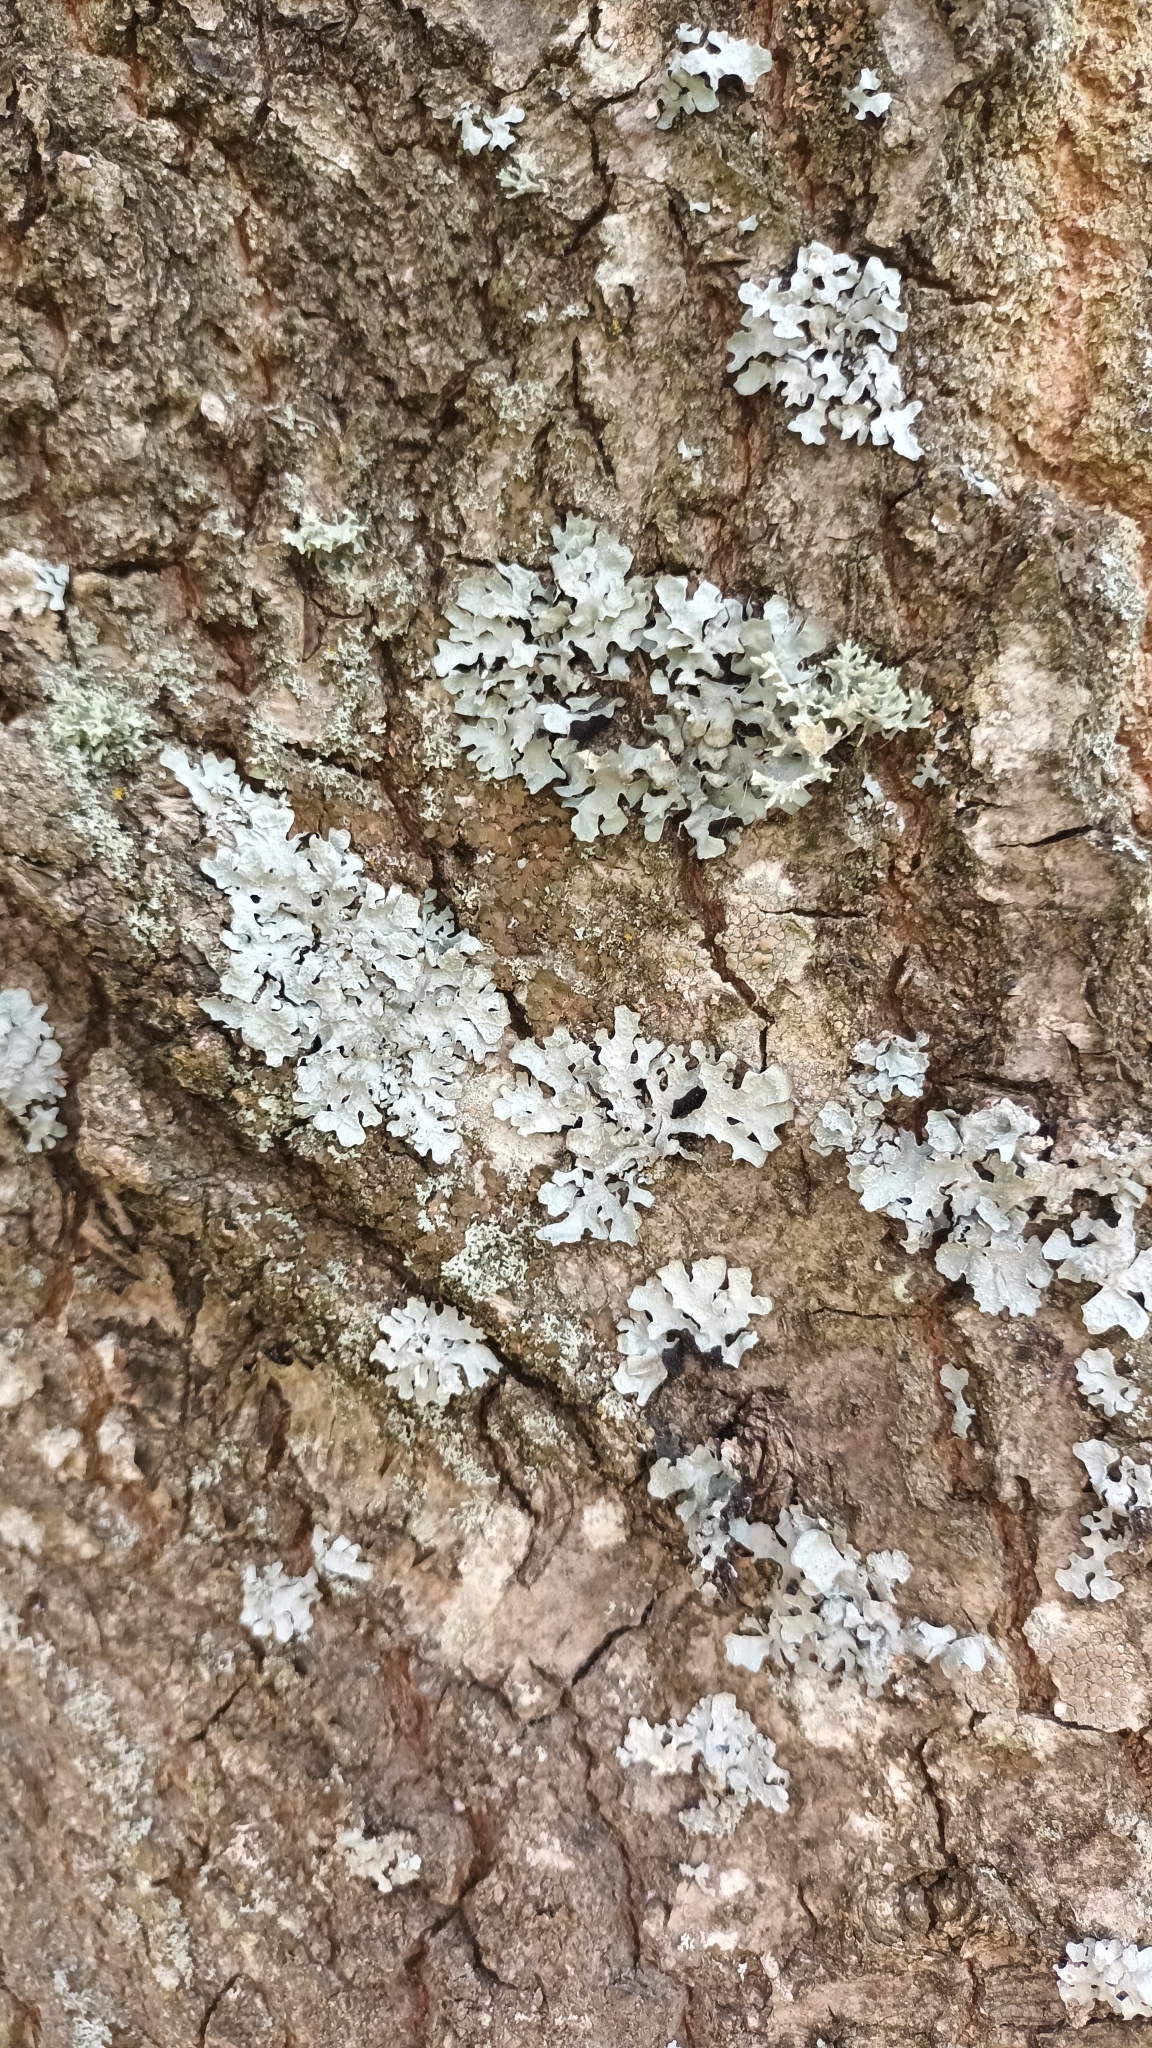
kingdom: Fungi
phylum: Ascomycota
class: Lecanoromycetes
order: Lecanorales
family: Parmeliaceae
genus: Parmelia
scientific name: Parmelia sulcata
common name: Netted shield lichen
